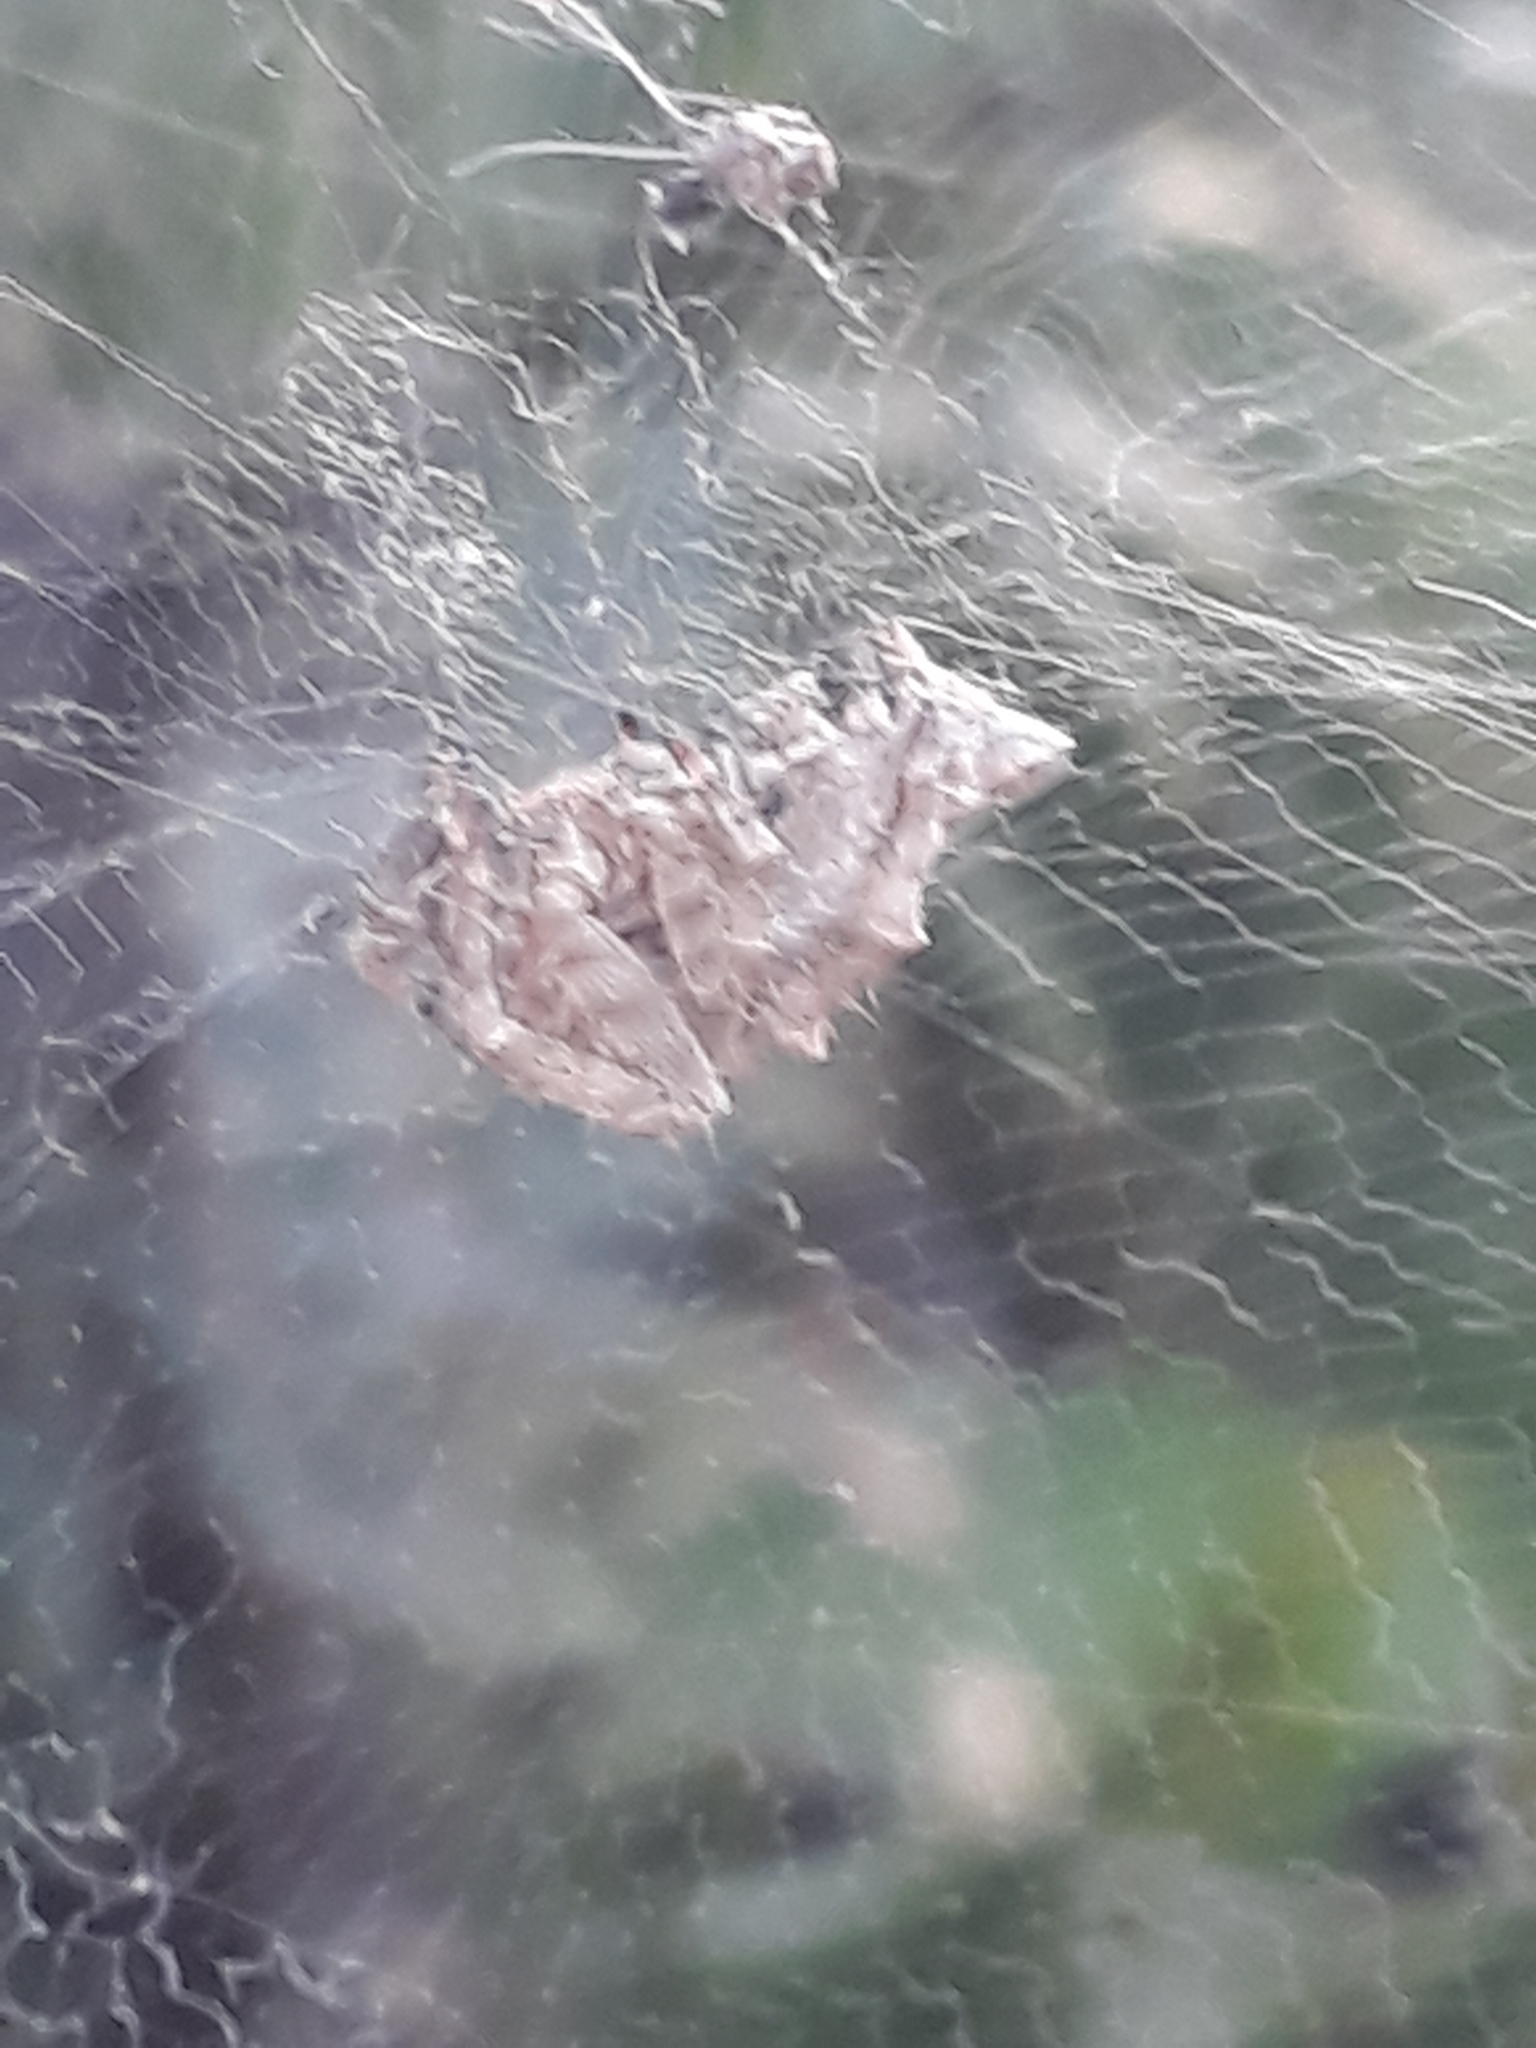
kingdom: Animalia
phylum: Arthropoda
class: Arachnida
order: Araneae
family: Araneidae
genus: Cyrtophora
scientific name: Cyrtophora citricola
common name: Orb weavers
